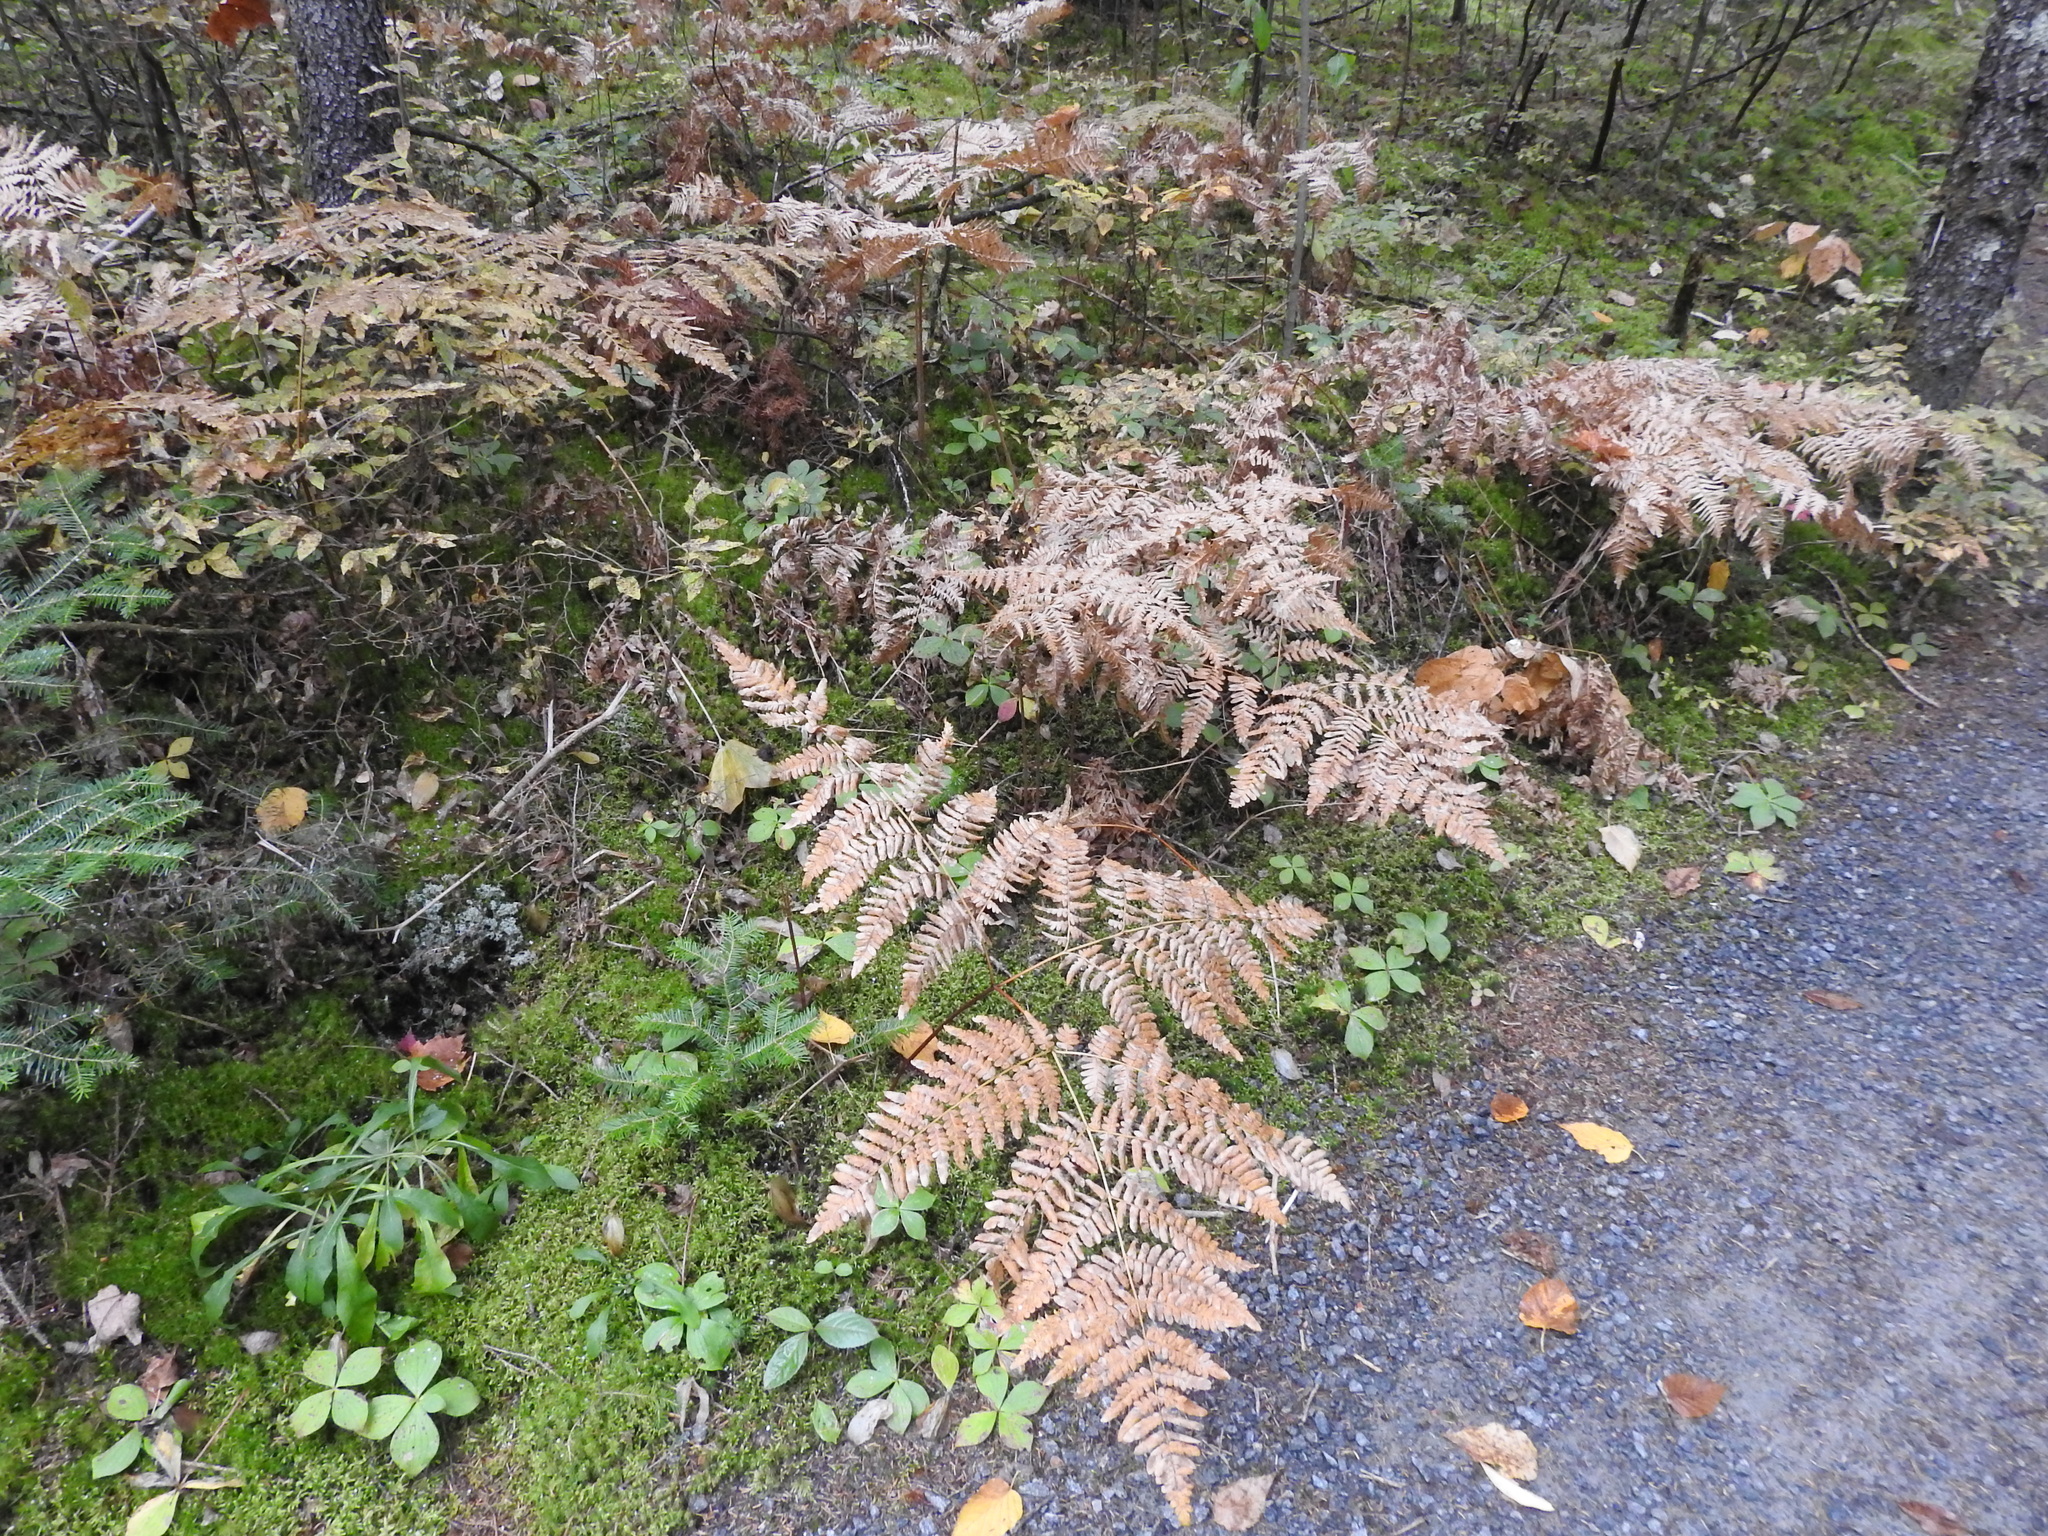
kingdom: Plantae
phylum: Tracheophyta
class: Polypodiopsida
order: Polypodiales
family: Dennstaedtiaceae
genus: Pteridium
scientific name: Pteridium aquilinum
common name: Bracken
